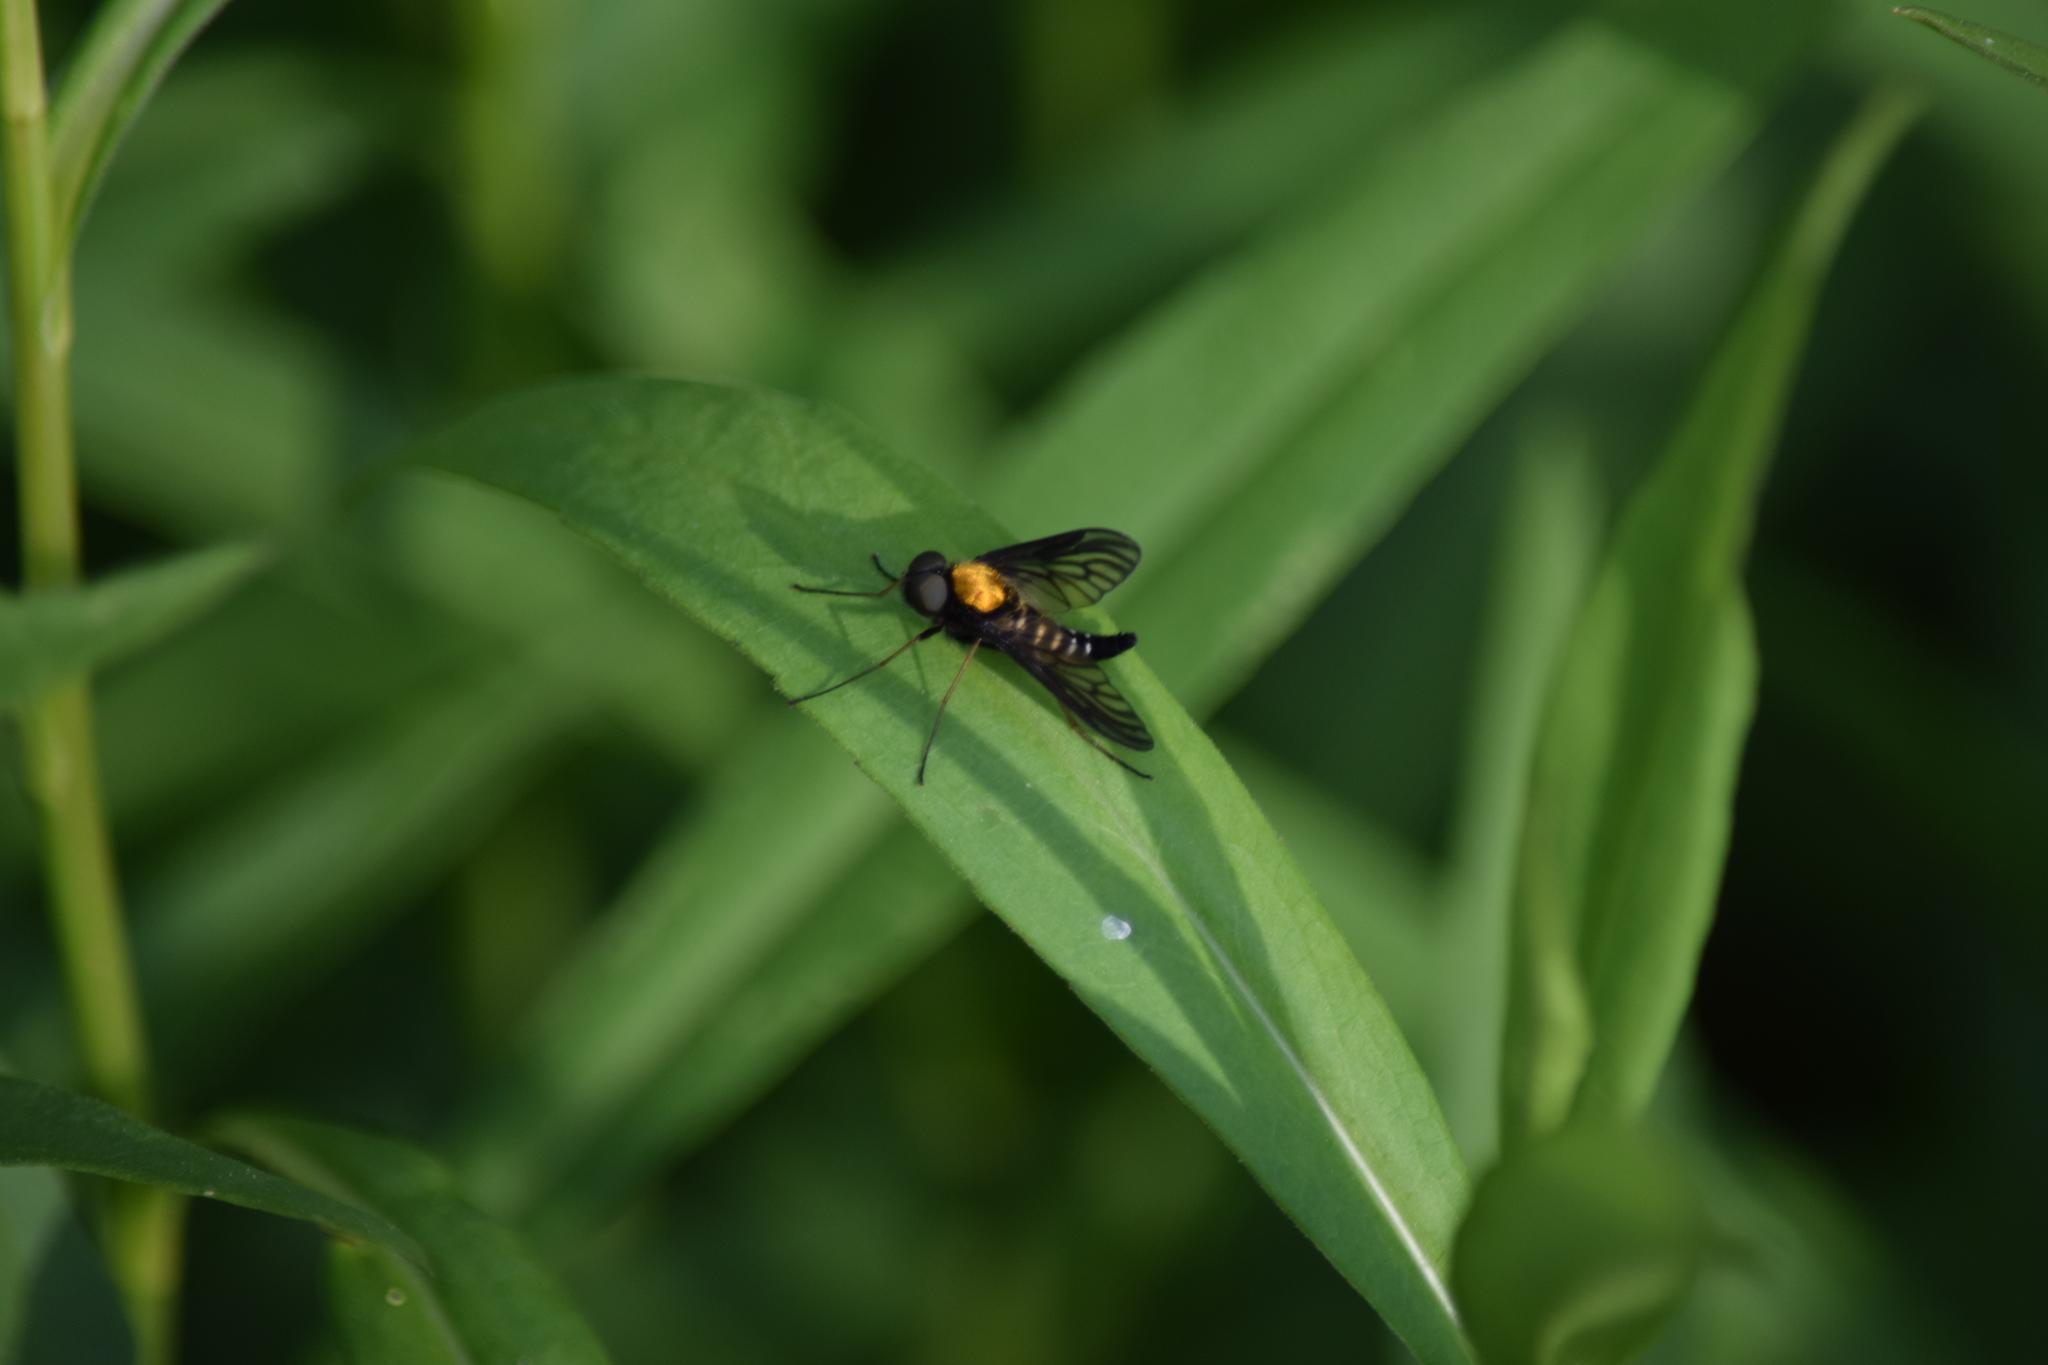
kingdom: Animalia
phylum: Arthropoda
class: Insecta
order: Diptera
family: Rhagionidae
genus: Chrysopilus
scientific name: Chrysopilus thoracicus
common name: Golden-backed snipe fly
